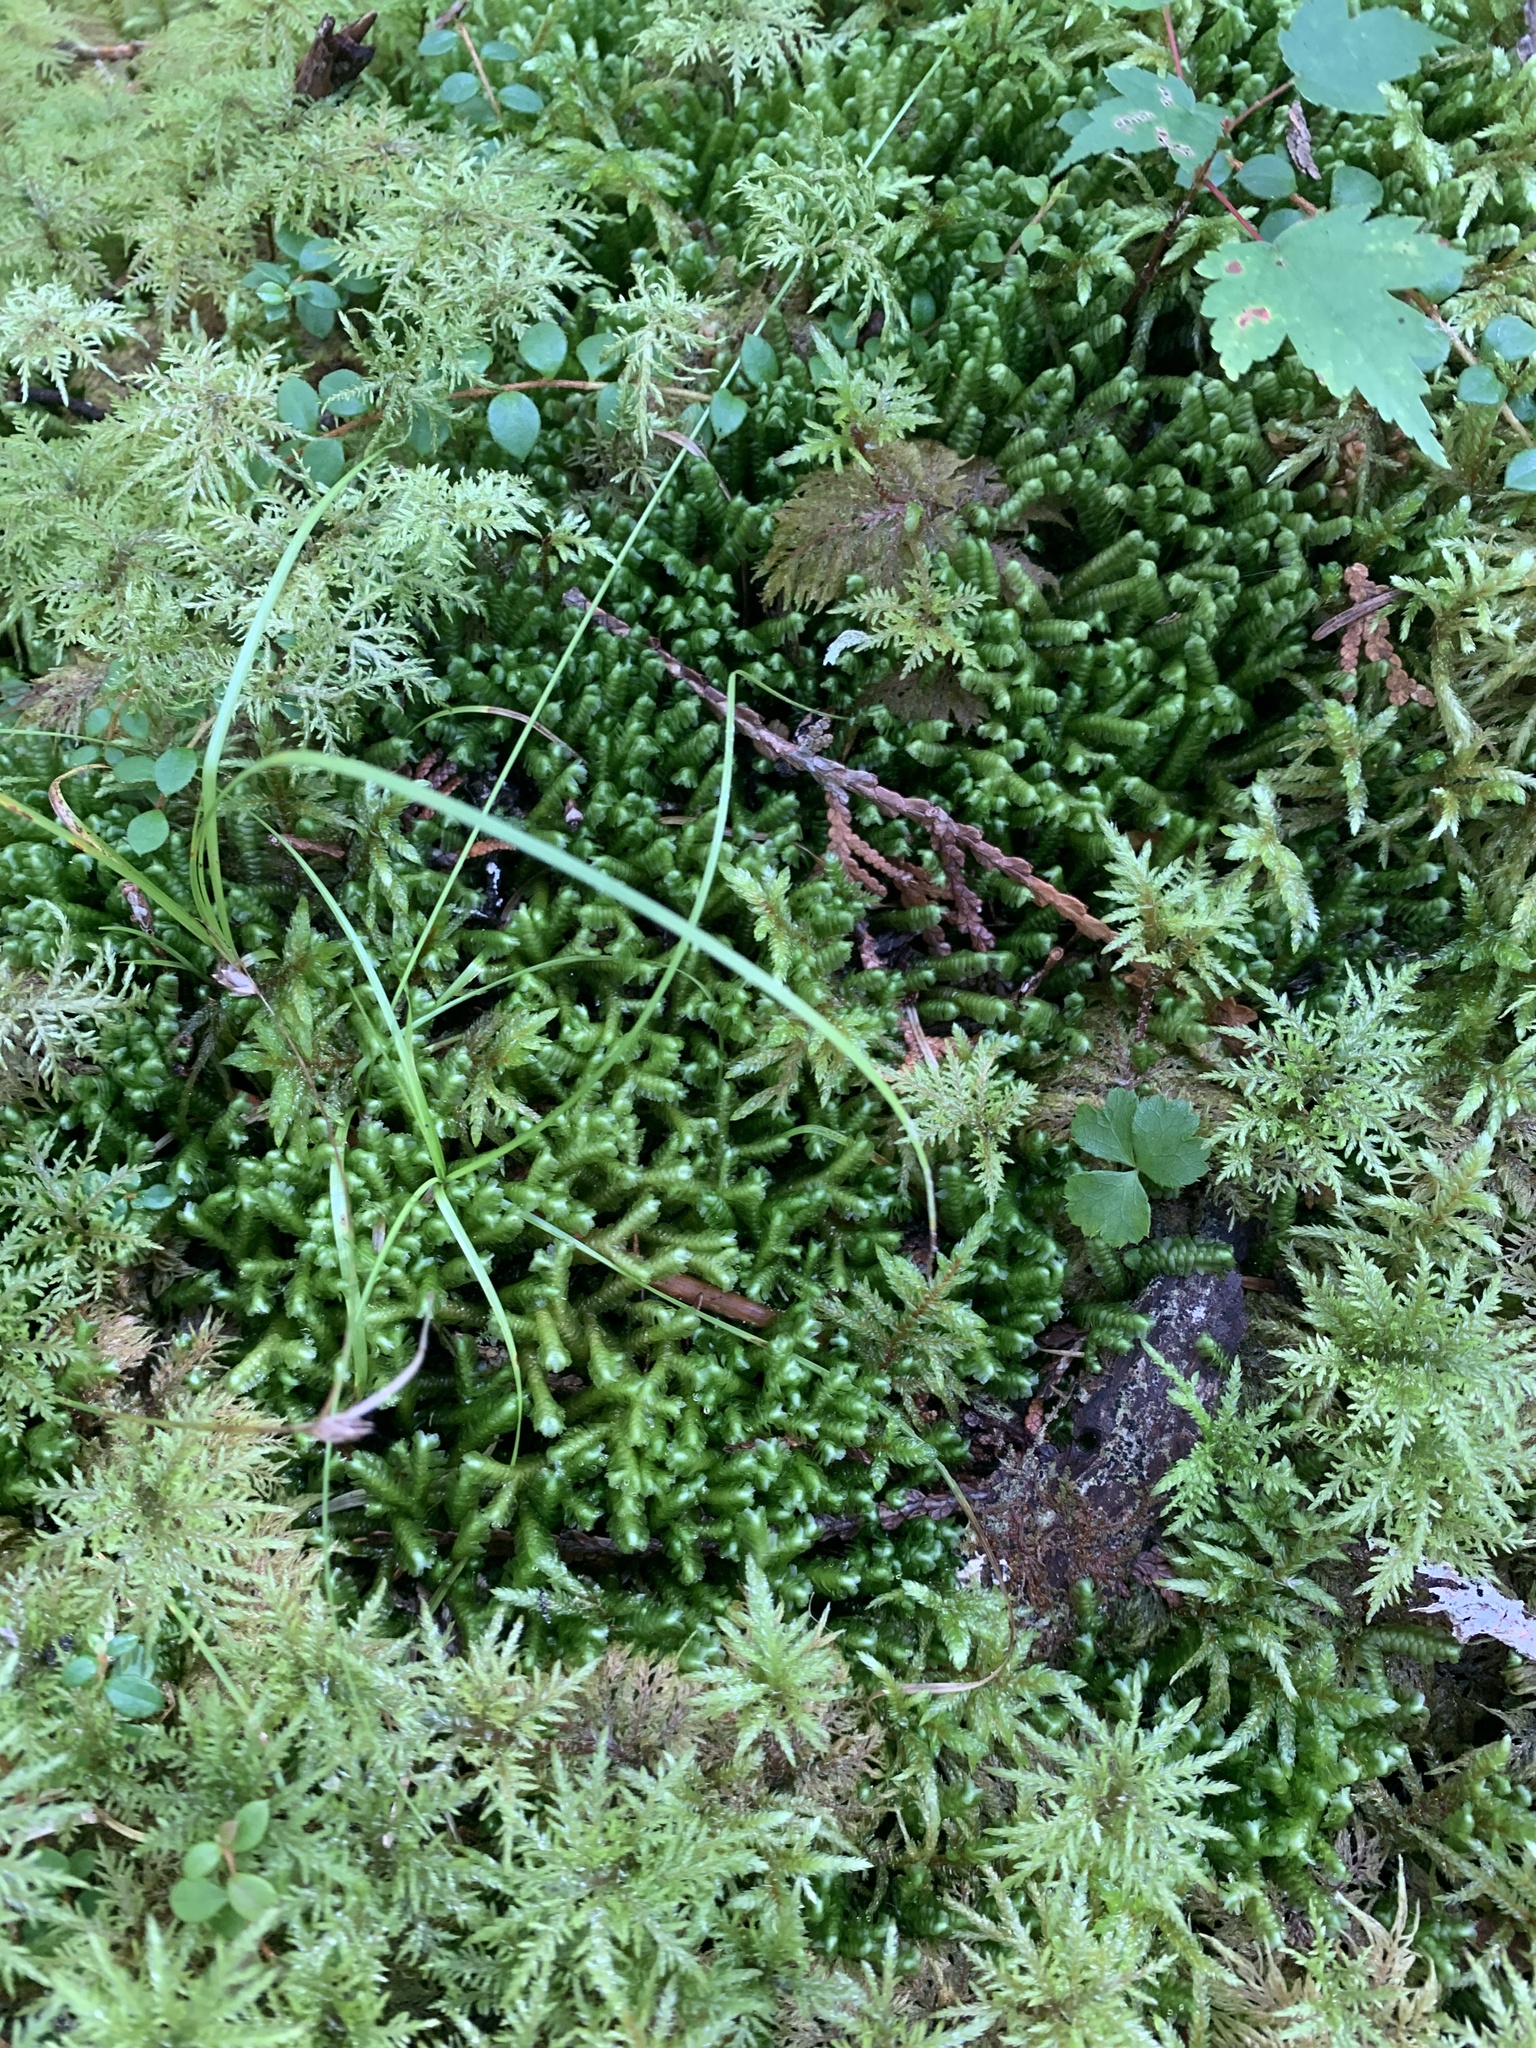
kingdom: Plantae
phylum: Marchantiophyta
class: Jungermanniopsida
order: Jungermanniales
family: Lepidoziaceae
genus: Bazzania
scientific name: Bazzania trilobata
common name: Three-lobed whipwort
